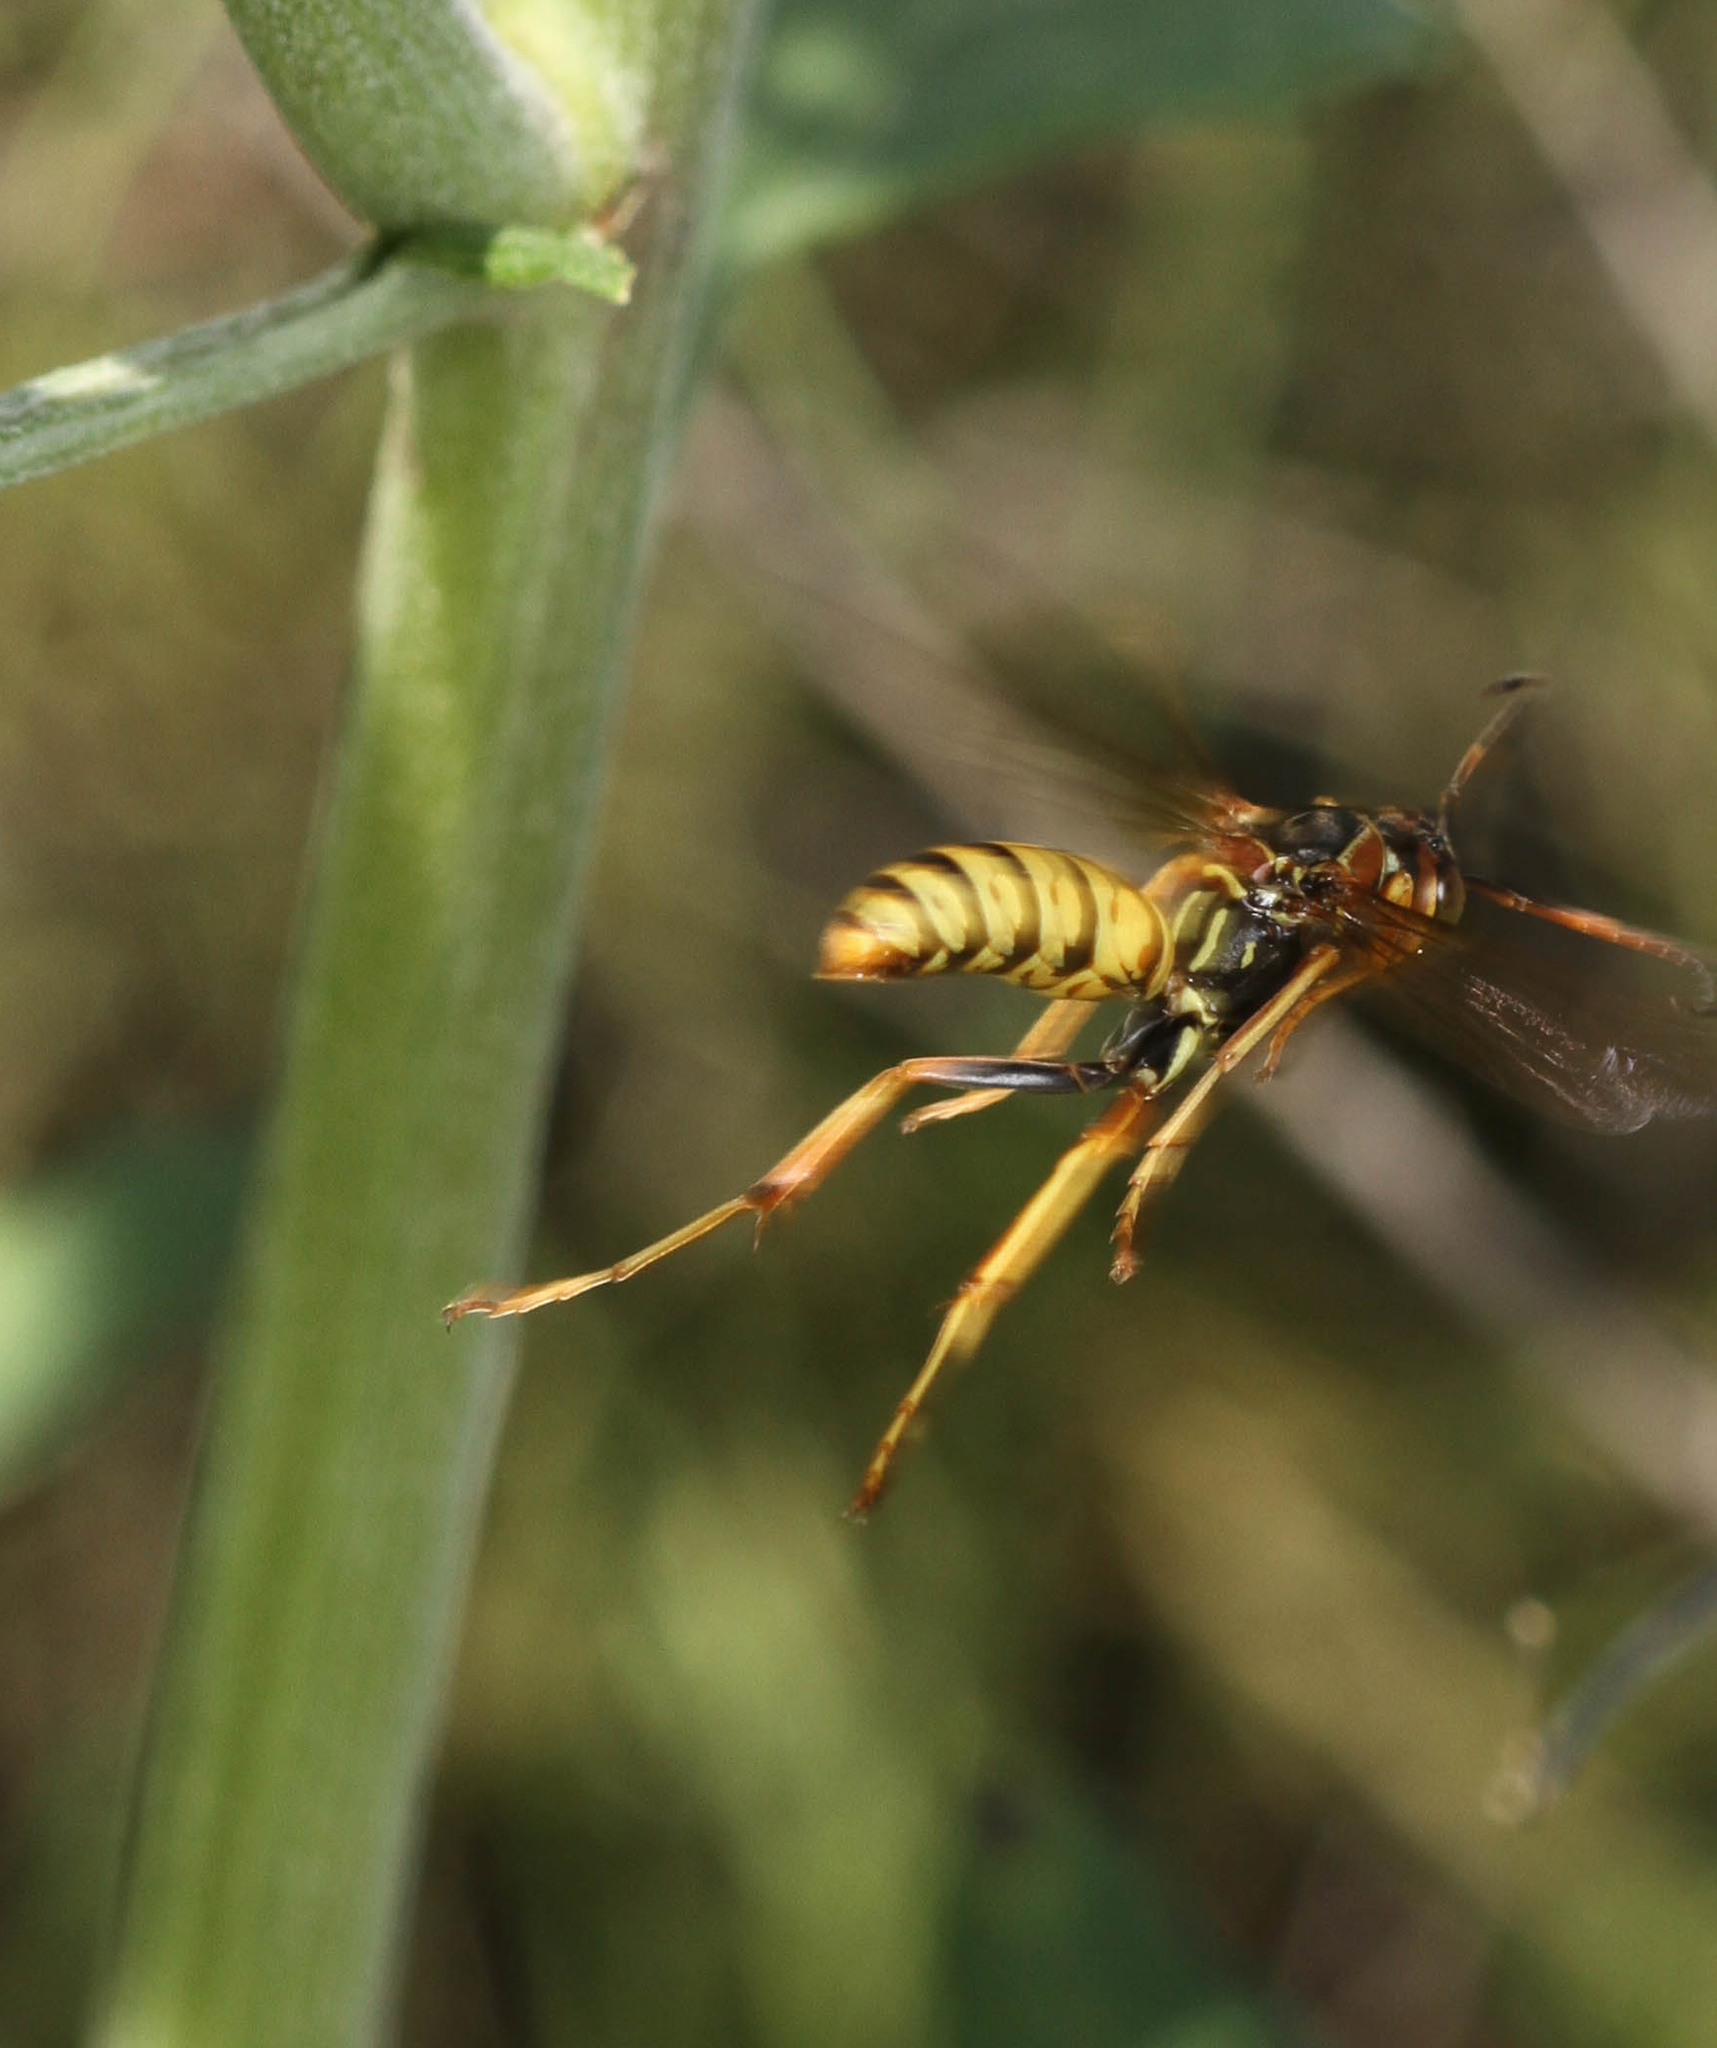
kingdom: Animalia
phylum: Arthropoda
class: Insecta
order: Hymenoptera
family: Eumenidae
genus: Polistes
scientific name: Polistes aurifer
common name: Paper wasp
